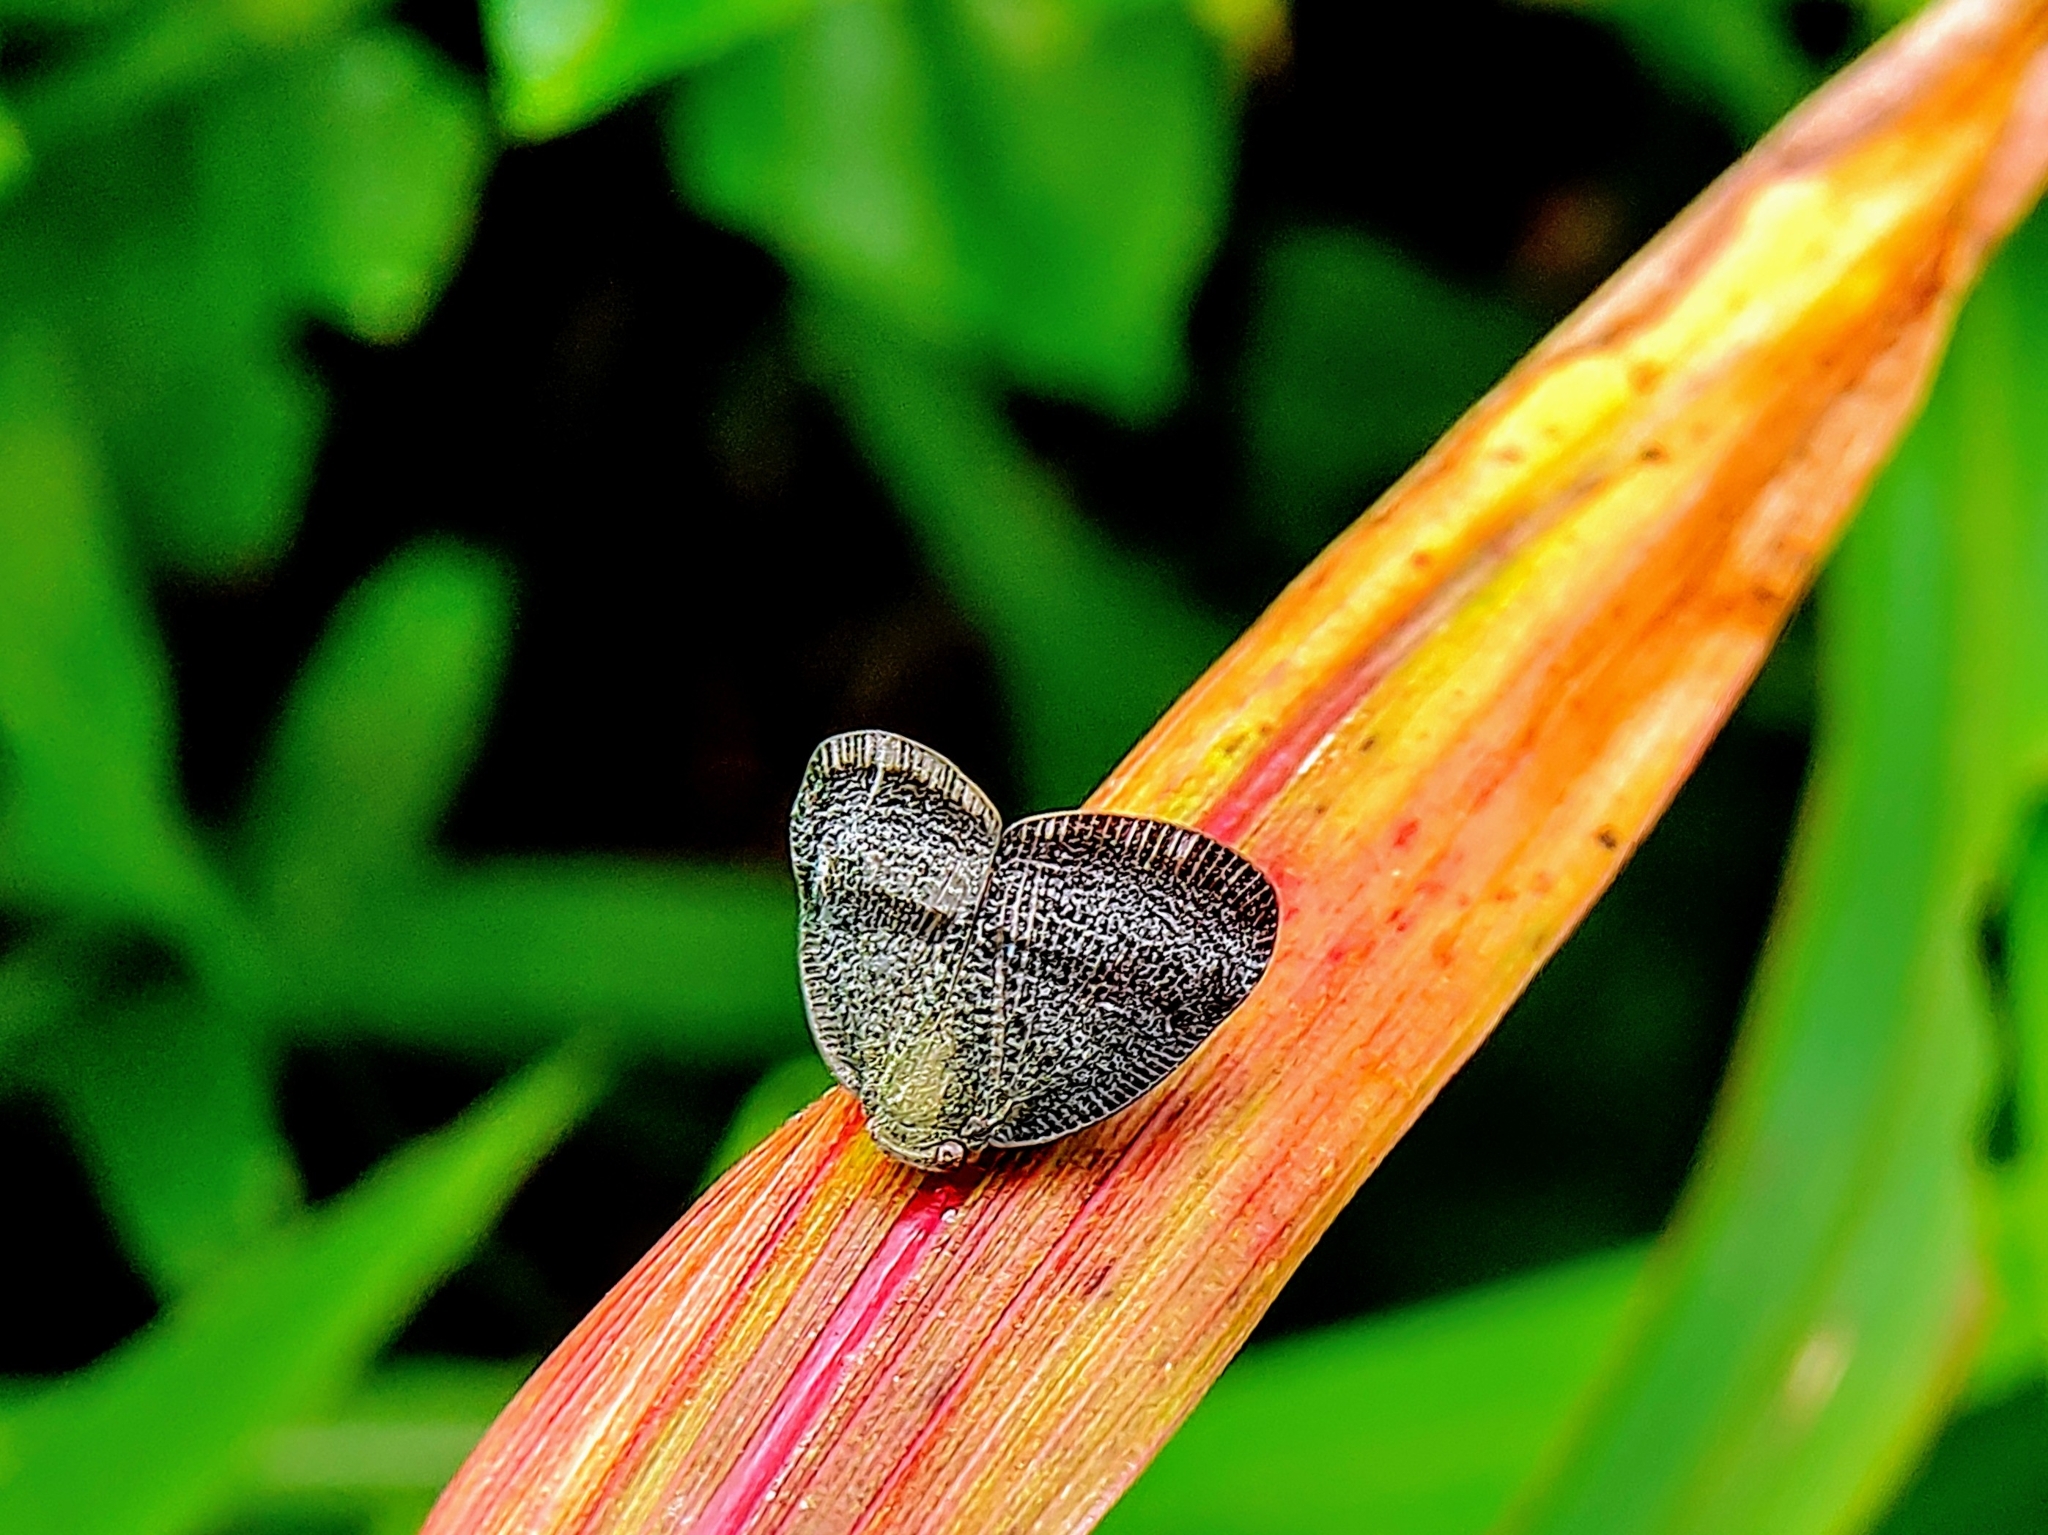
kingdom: Animalia
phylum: Arthropoda
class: Insecta
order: Hemiptera
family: Ricaniidae
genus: Ricania
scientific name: Ricania taeniata
